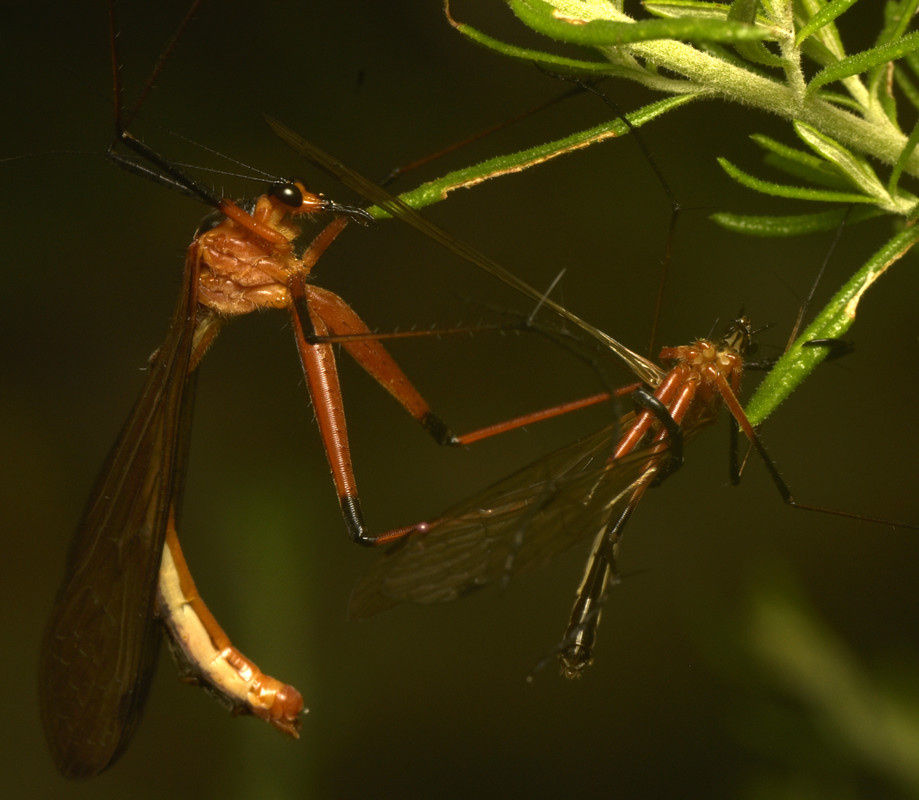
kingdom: Animalia
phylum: Arthropoda
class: Insecta
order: Mecoptera
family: Bittacidae
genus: Harpobittacus
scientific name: Harpobittacus australis
